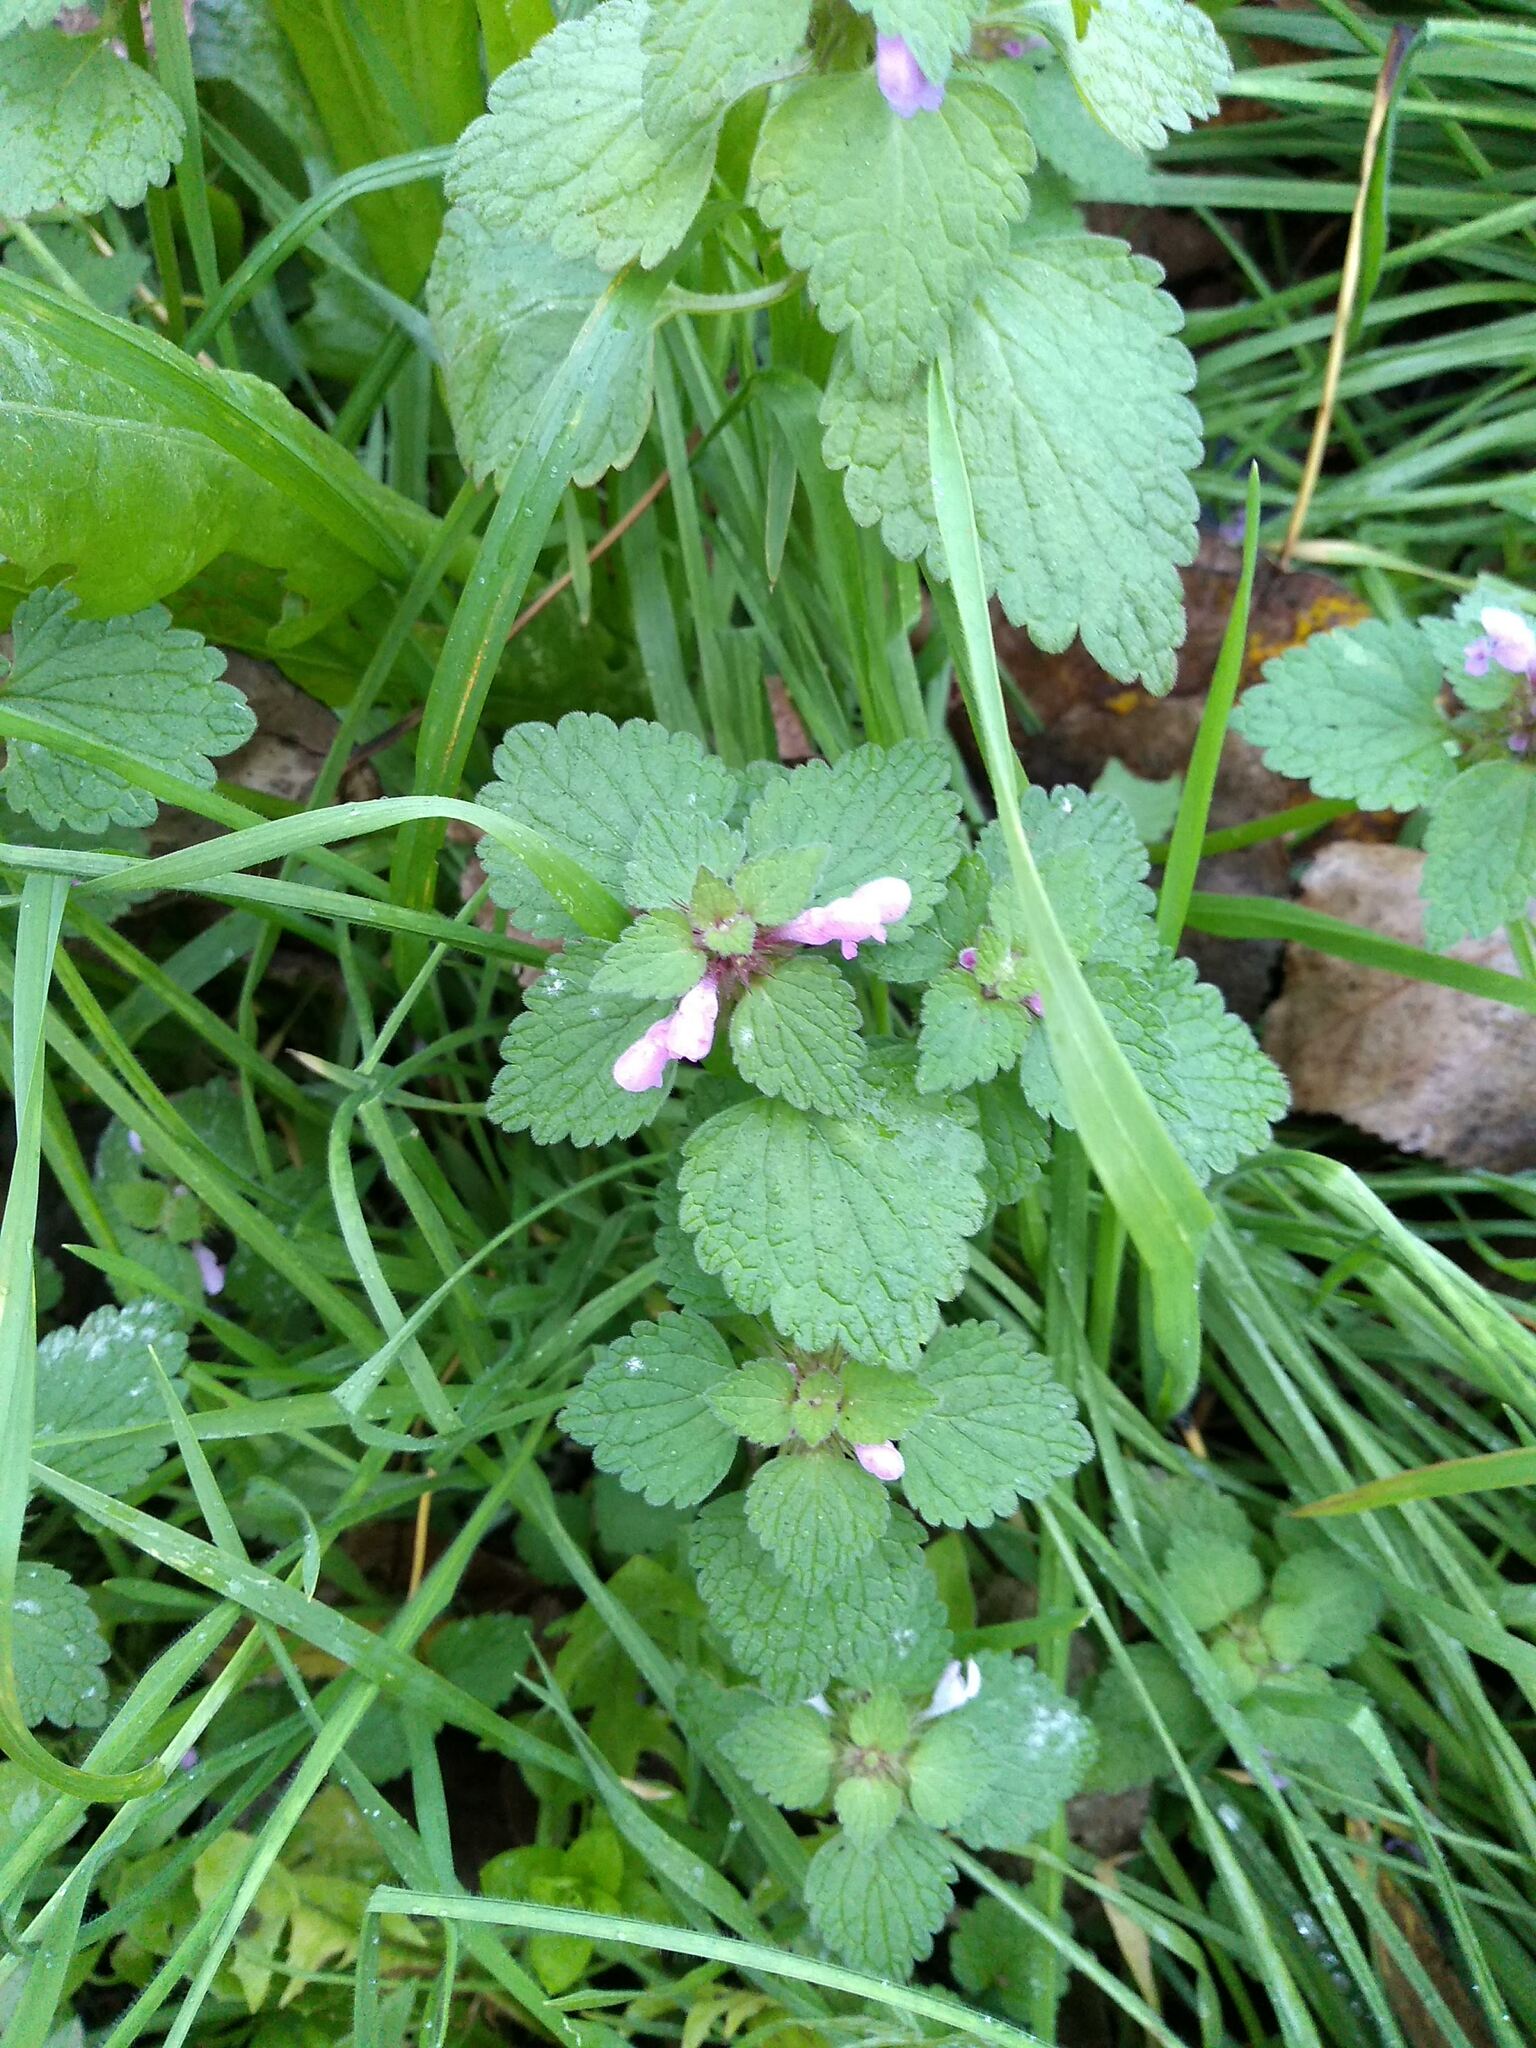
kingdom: Plantae
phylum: Tracheophyta
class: Magnoliopsida
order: Lamiales
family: Lamiaceae
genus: Lamium
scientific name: Lamium purpureum
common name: Red dead-nettle
